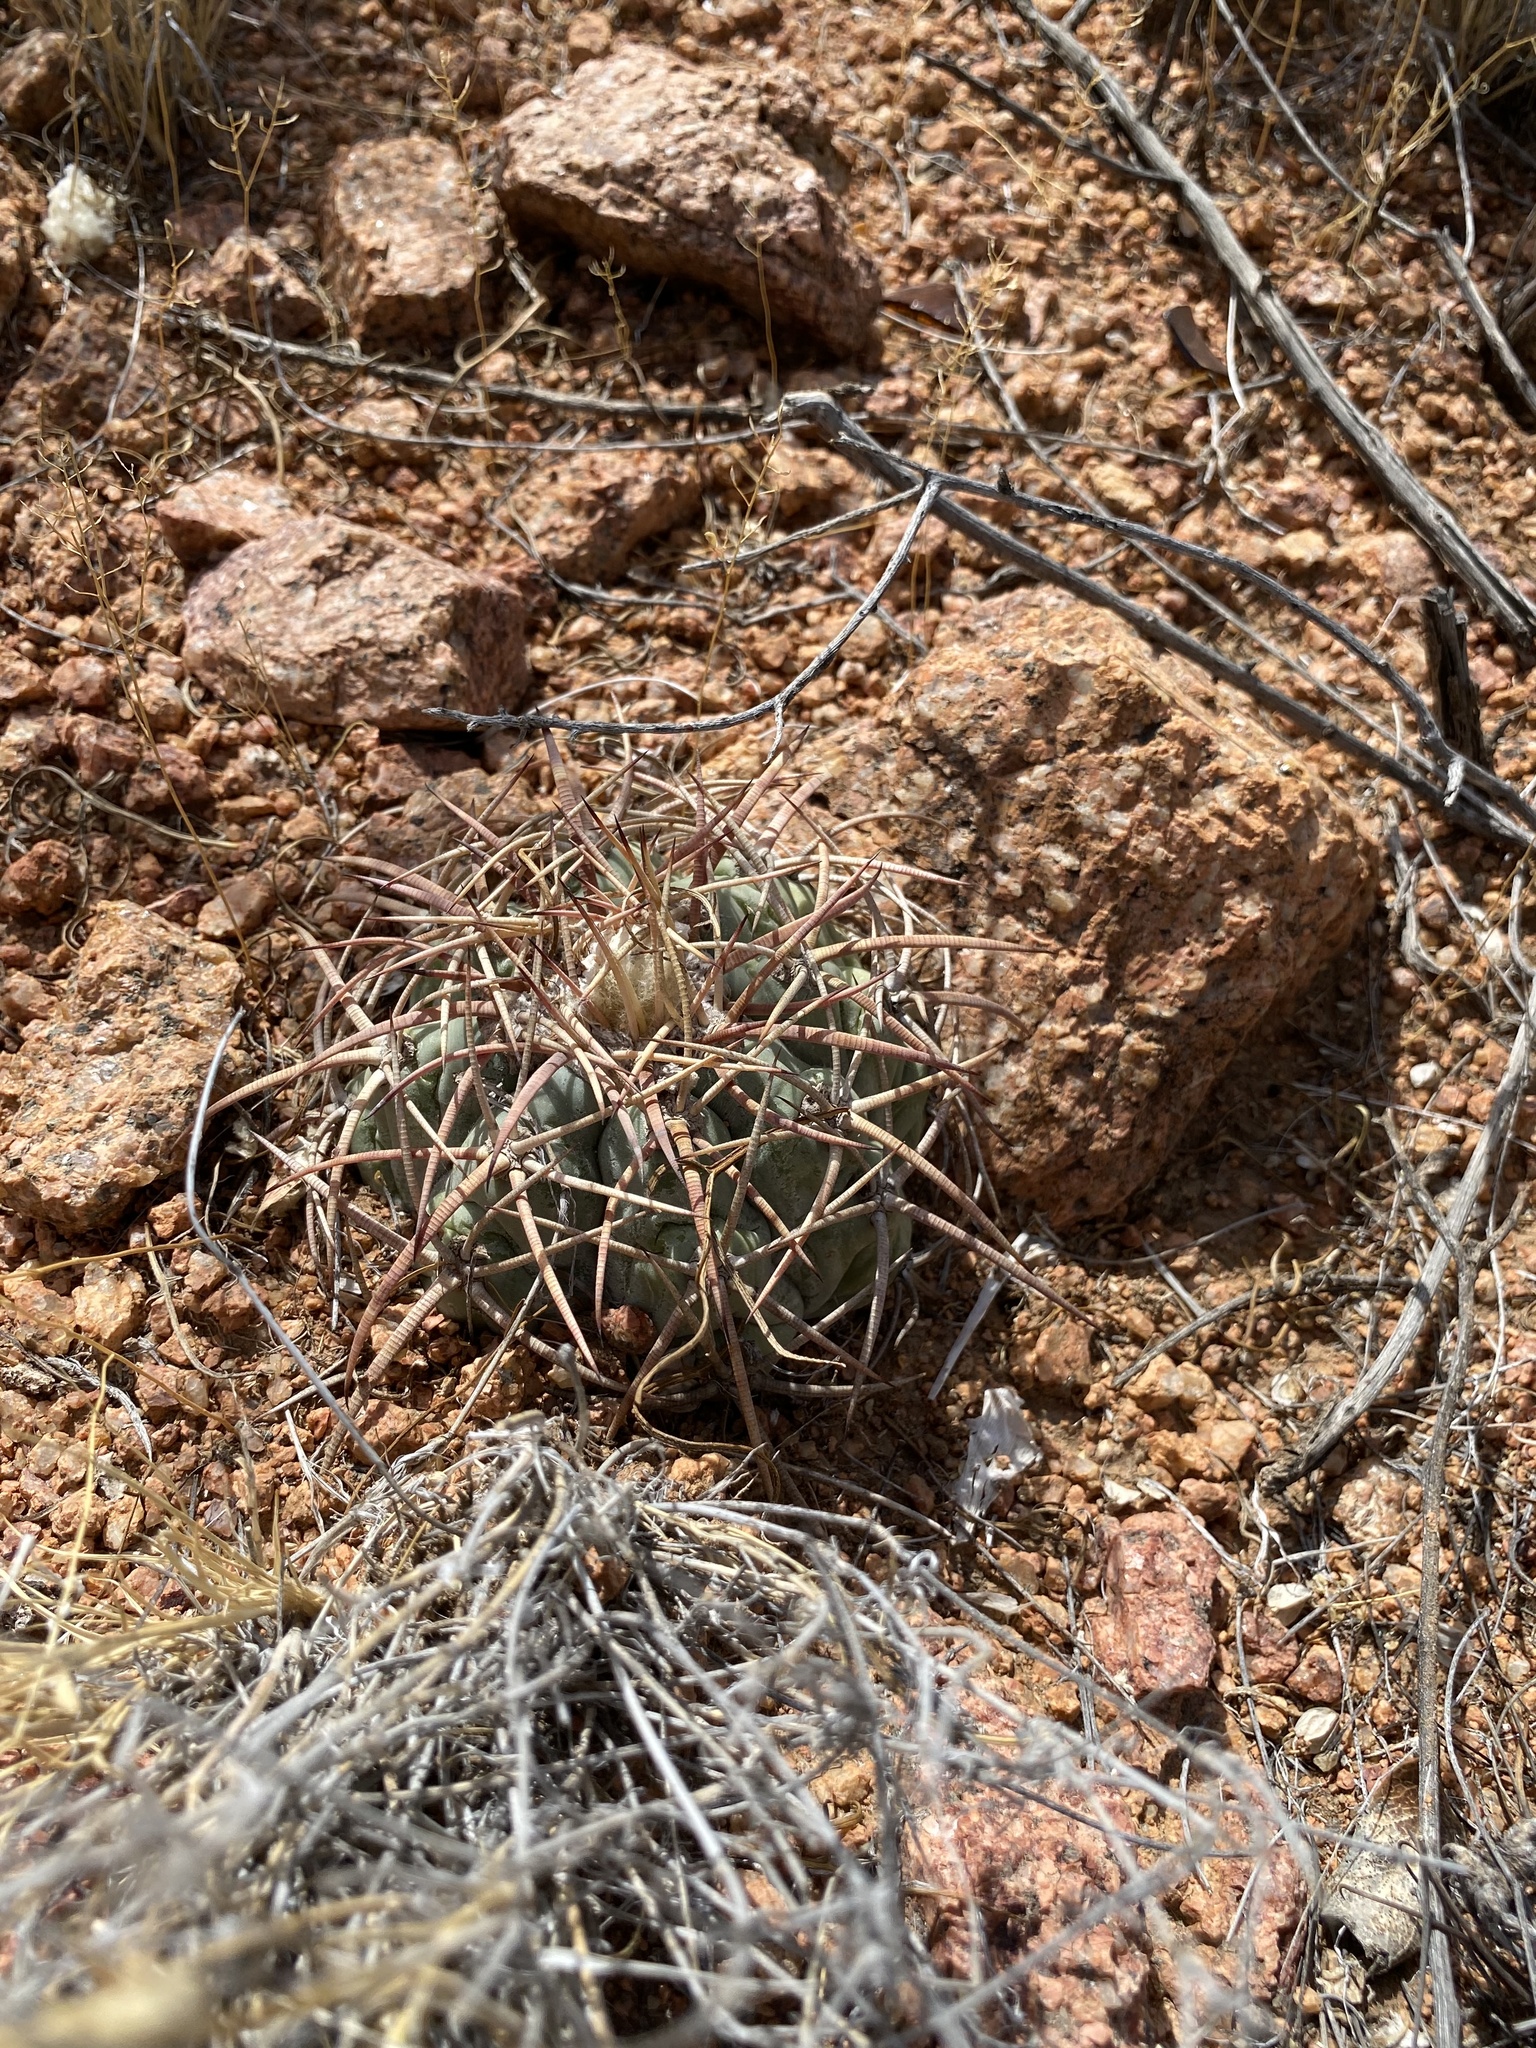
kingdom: Plantae
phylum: Tracheophyta
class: Magnoliopsida
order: Caryophyllales
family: Cactaceae
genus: Echinocactus
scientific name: Echinocactus horizonthalonius
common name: Devilshead
